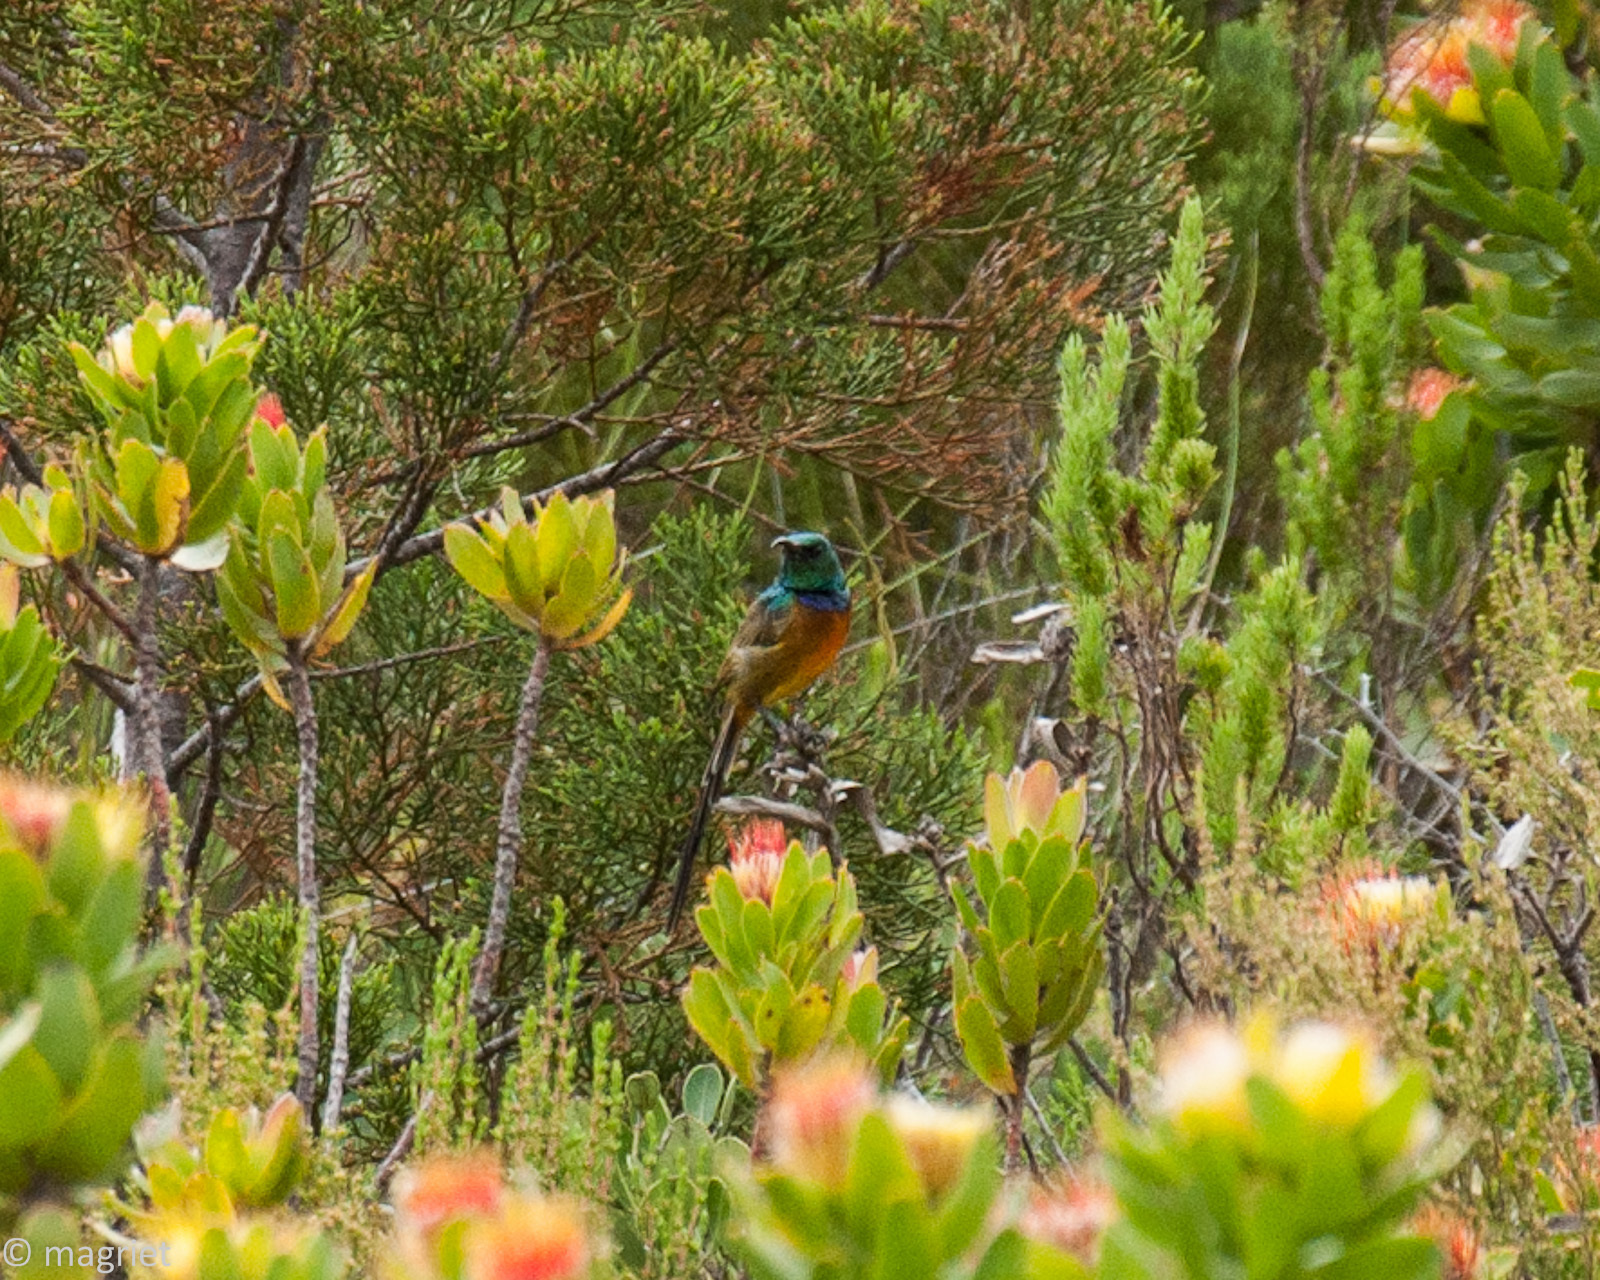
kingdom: Animalia
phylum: Chordata
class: Aves
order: Passeriformes
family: Nectariniidae
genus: Anthobaphes
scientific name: Anthobaphes violacea
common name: Orange-breasted sunbird
